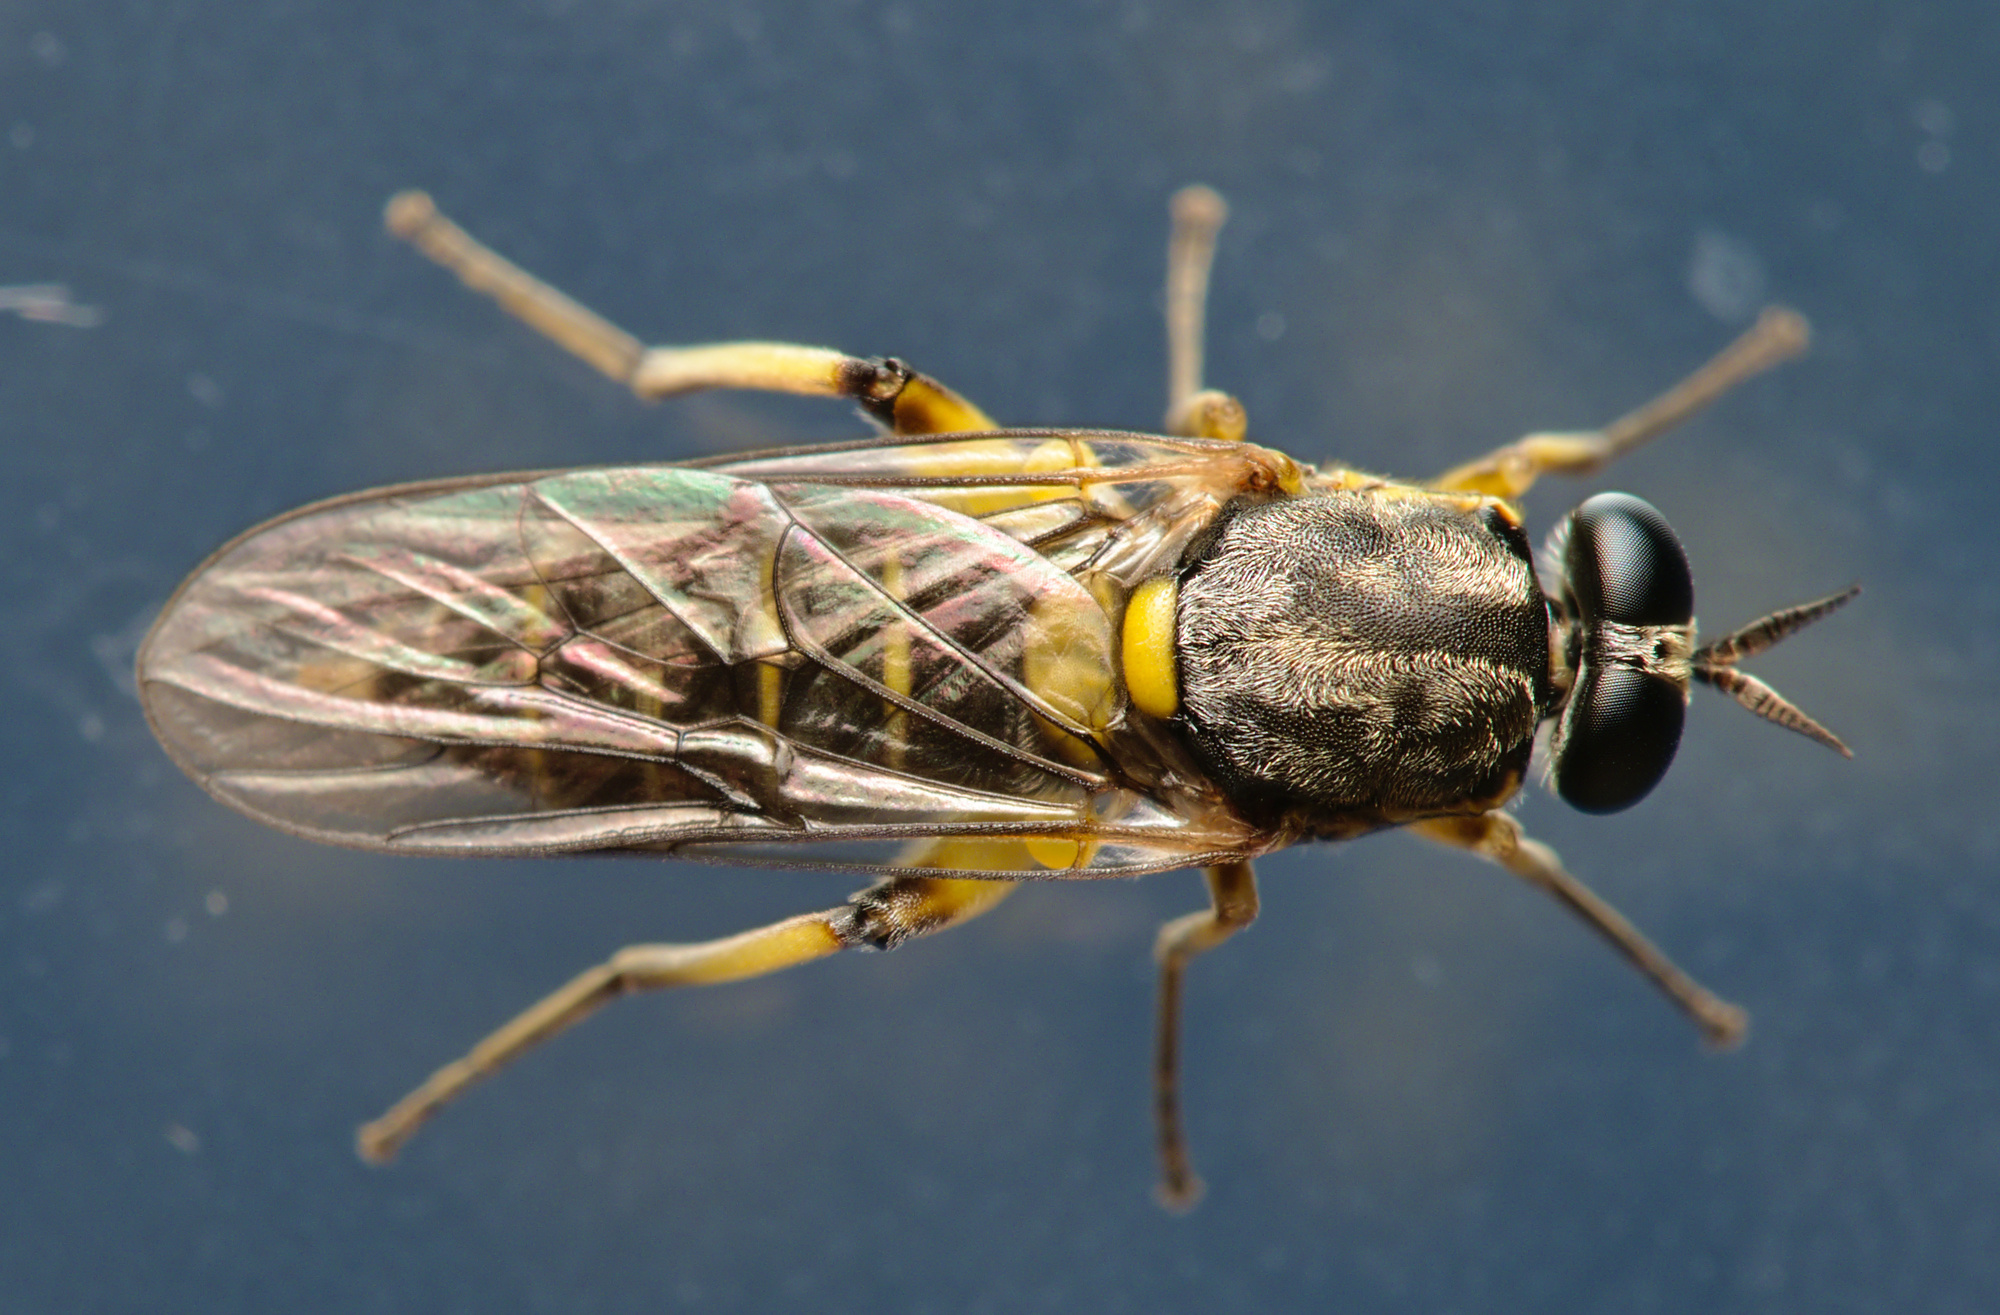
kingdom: Animalia
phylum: Arthropoda
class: Insecta
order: Diptera
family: Xylomyidae
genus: Solva
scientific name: Solva marginata
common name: Drab wood-soldierfly
